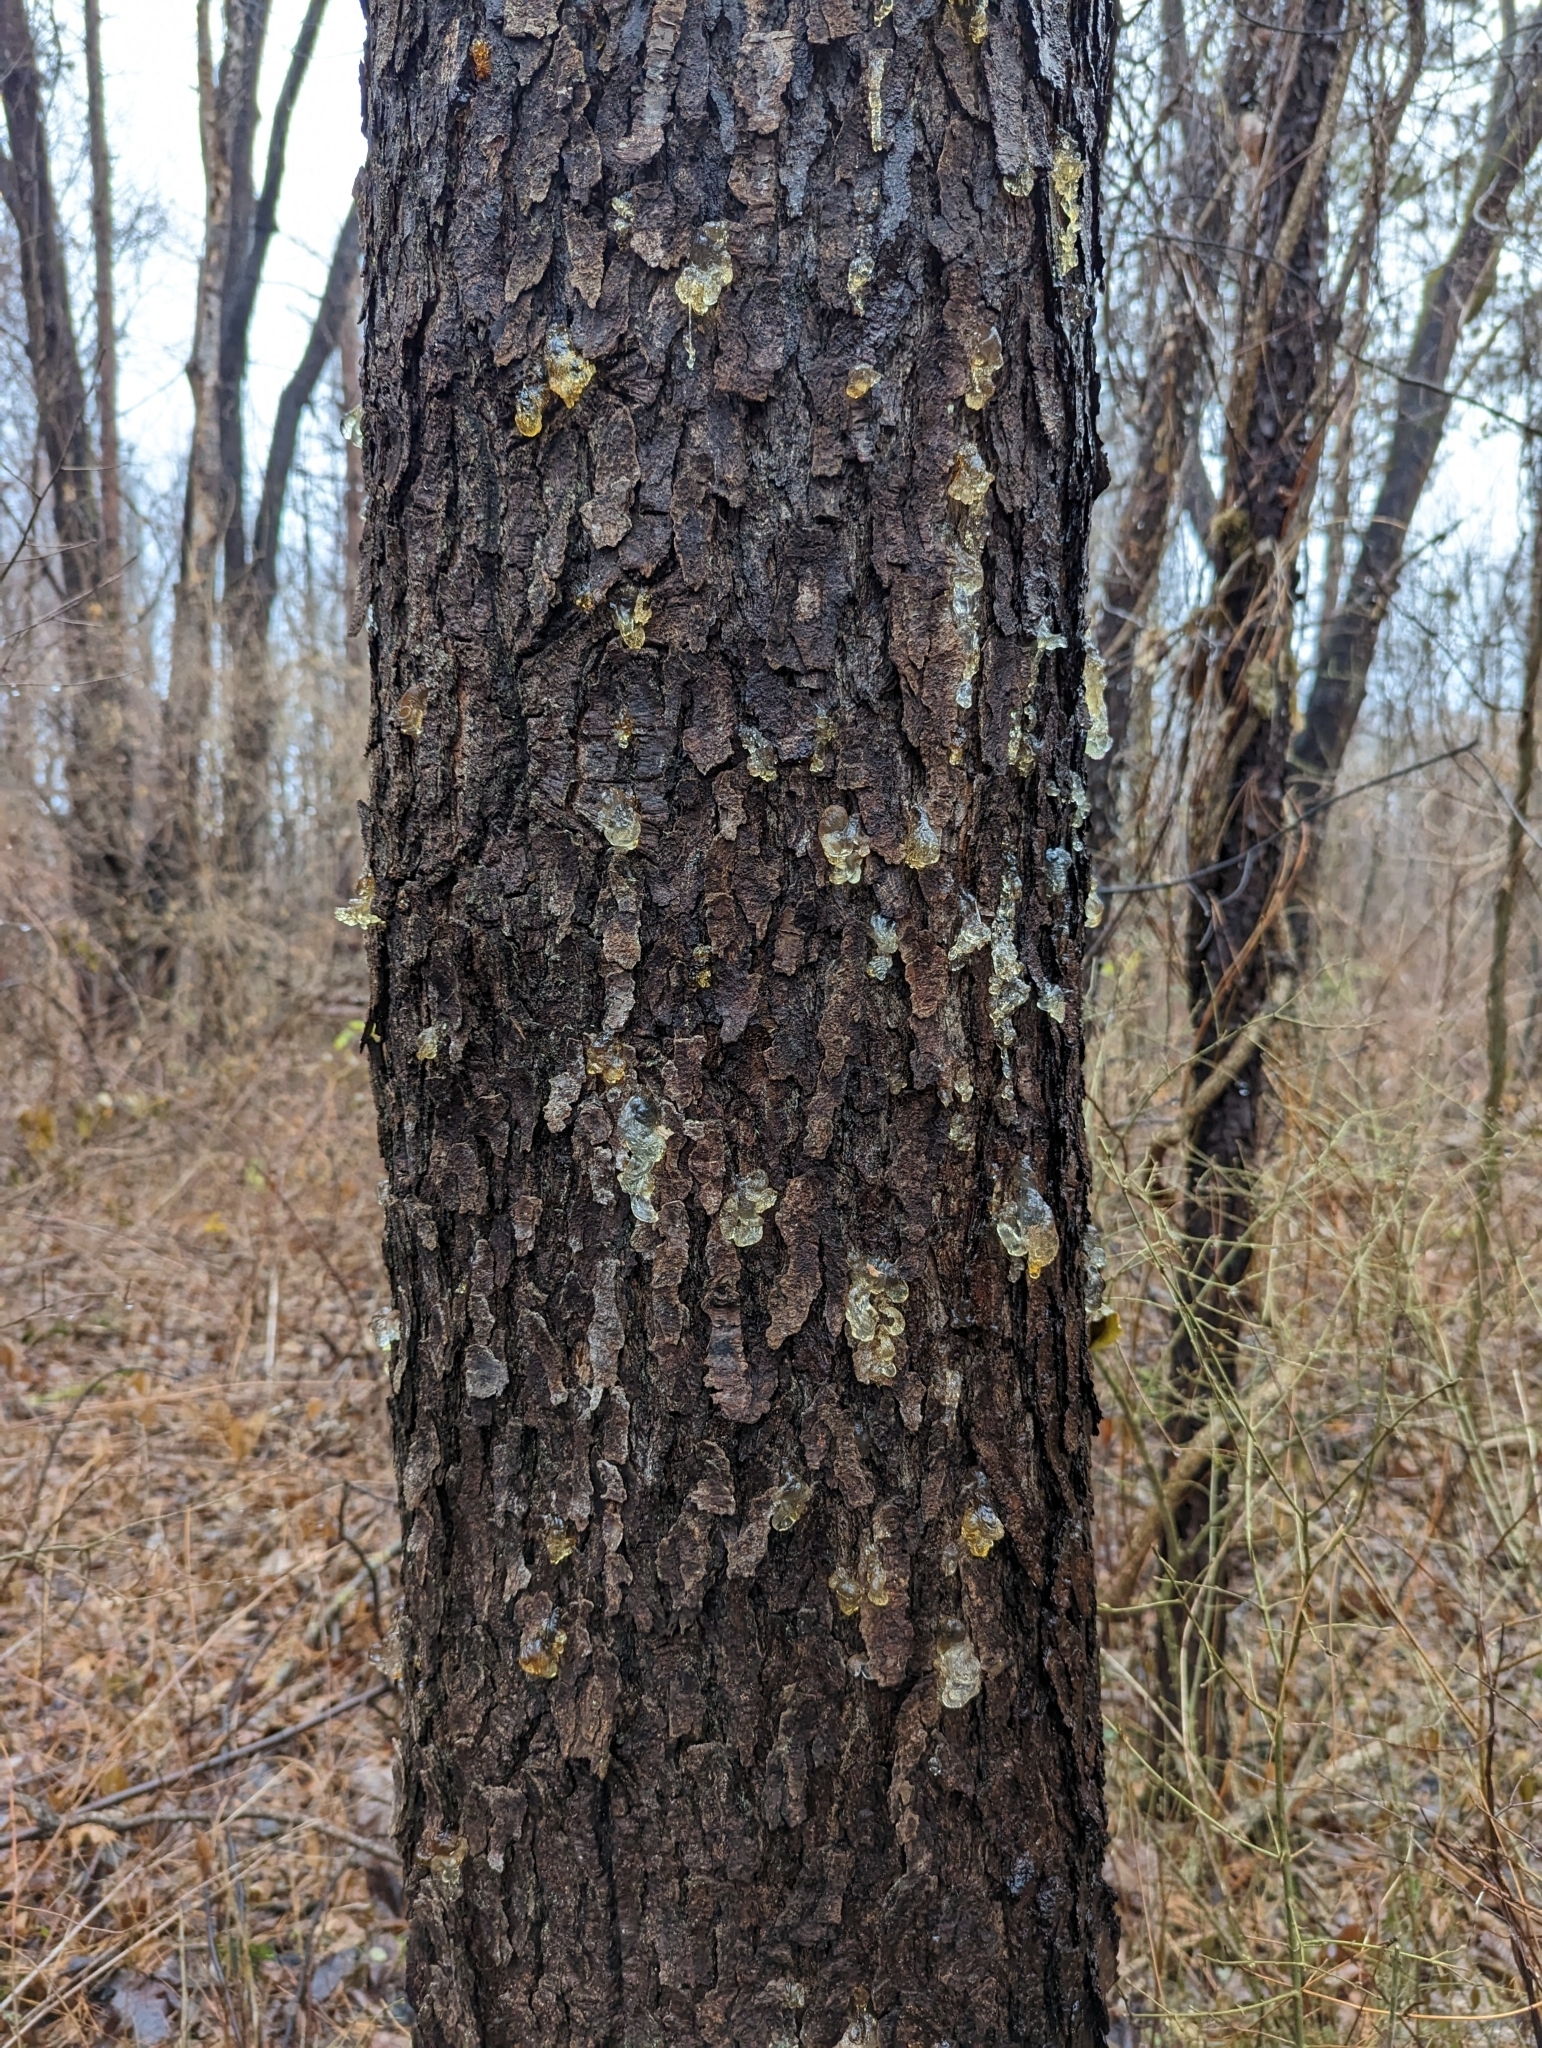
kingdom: Plantae
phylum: Tracheophyta
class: Magnoliopsida
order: Rosales
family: Rosaceae
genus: Prunus
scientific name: Prunus serotina
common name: Black cherry
